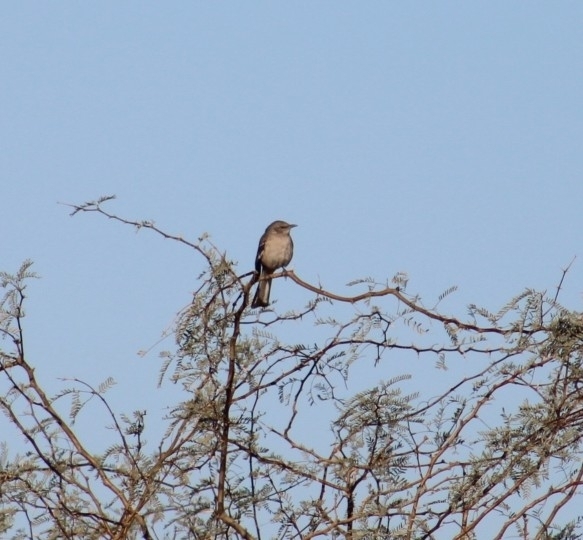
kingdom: Animalia
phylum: Chordata
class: Aves
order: Passeriformes
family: Mimidae
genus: Mimus
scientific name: Mimus polyglottos
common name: Northern mockingbird
